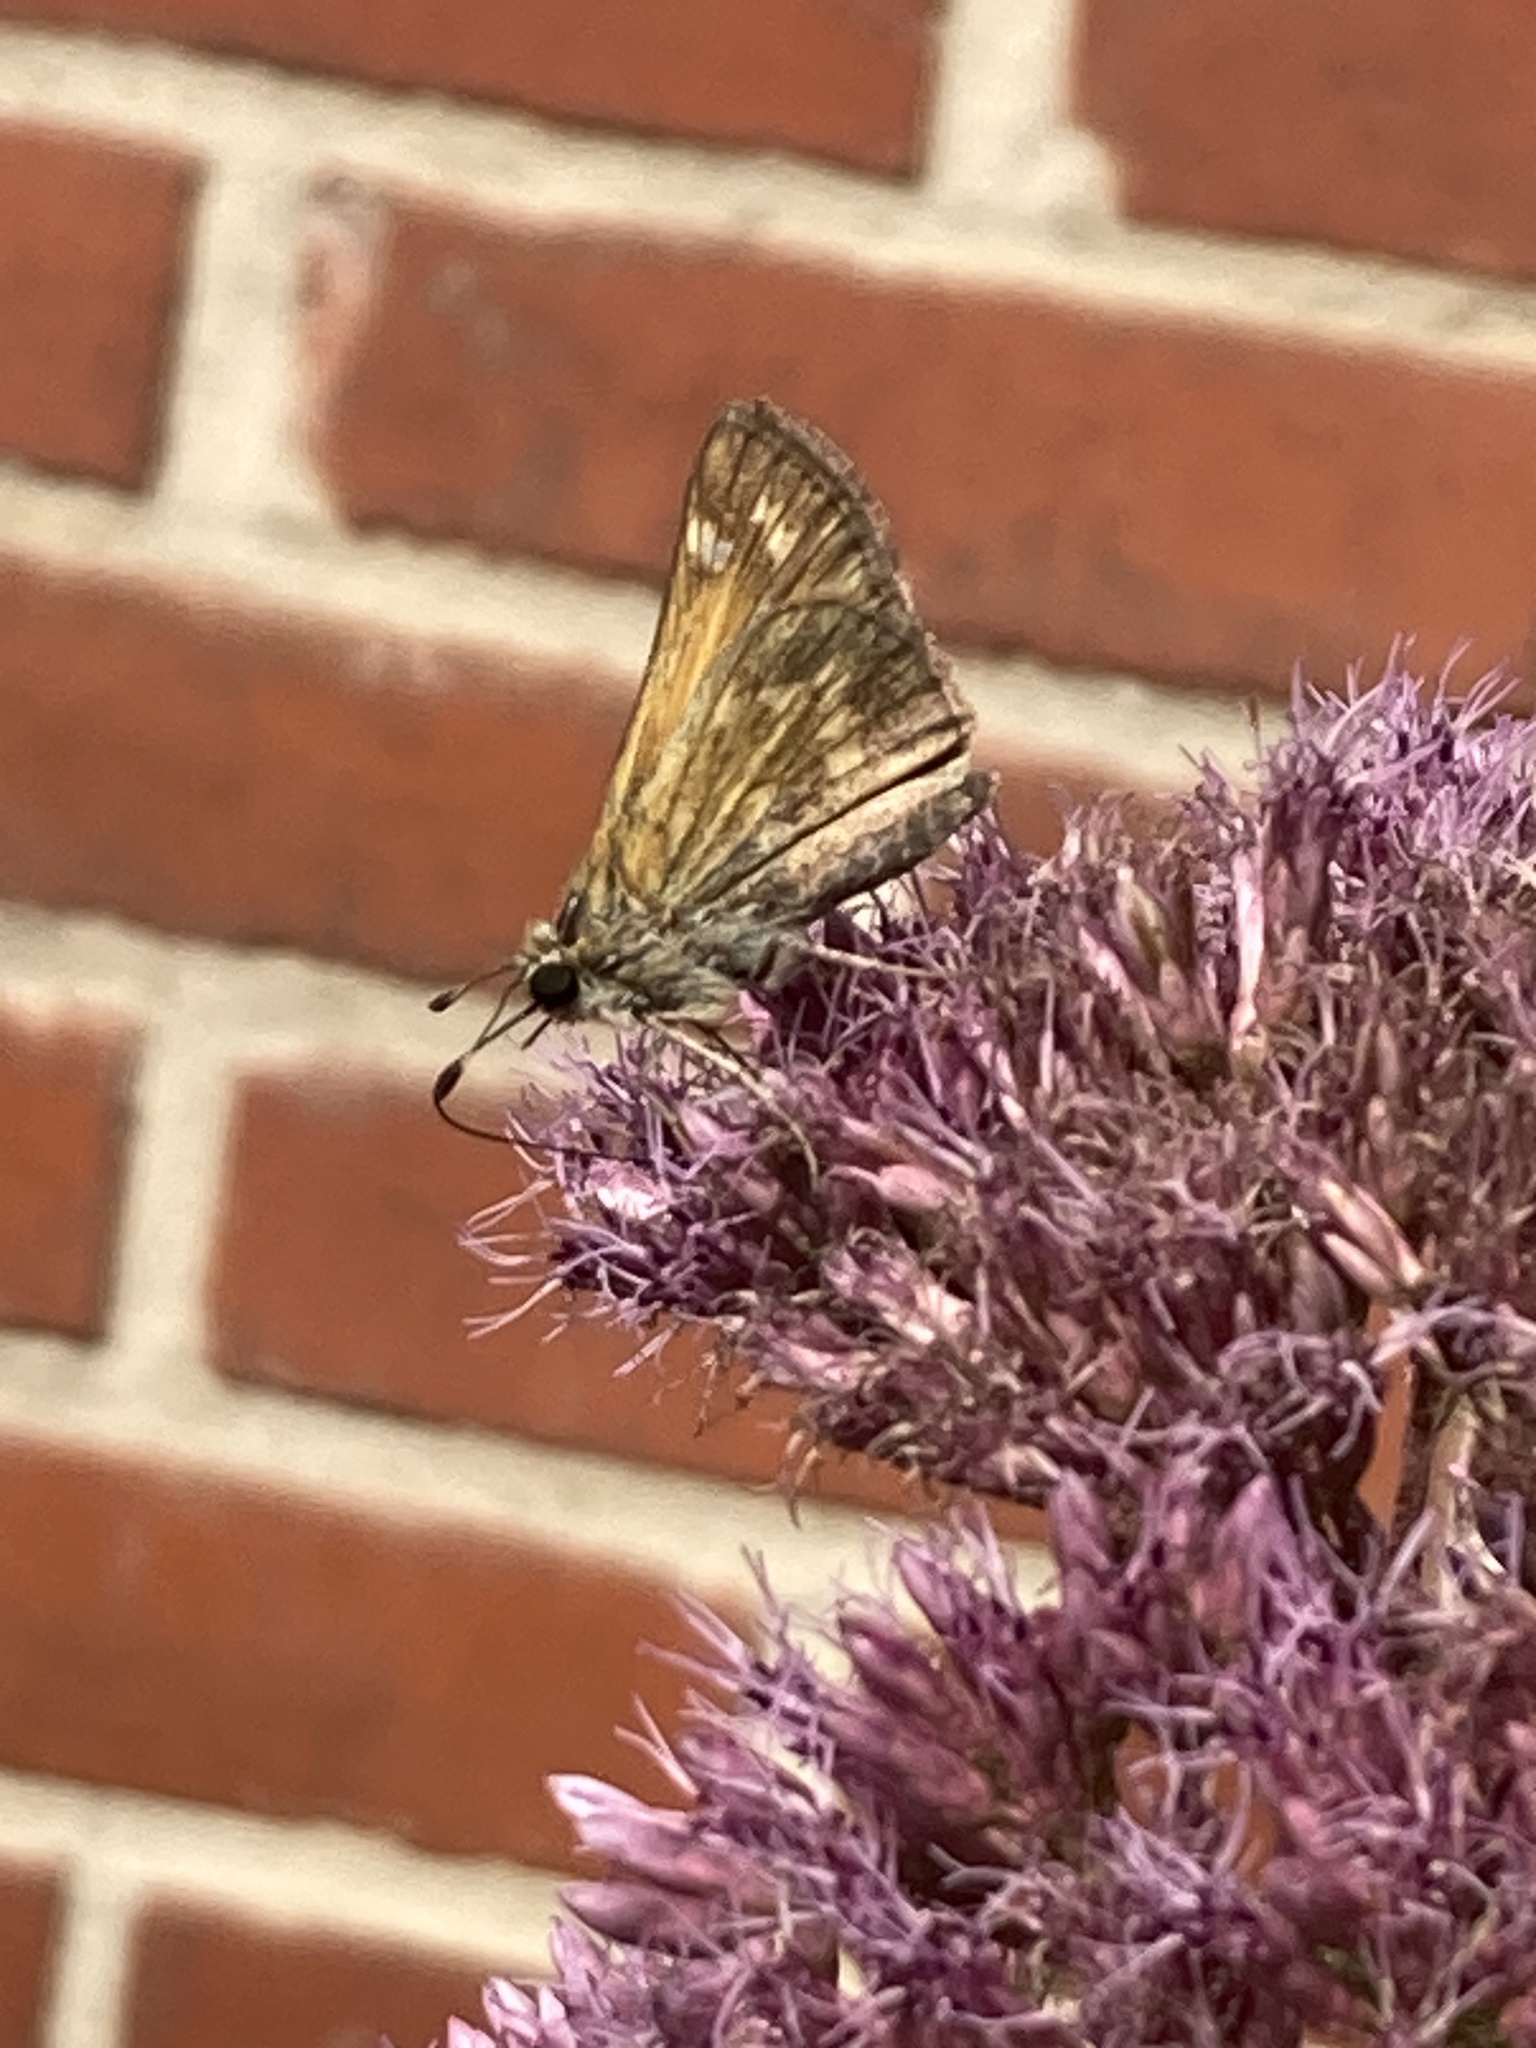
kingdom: Animalia
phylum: Arthropoda
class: Insecta
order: Lepidoptera
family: Hesperiidae
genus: Atalopedes
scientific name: Atalopedes
